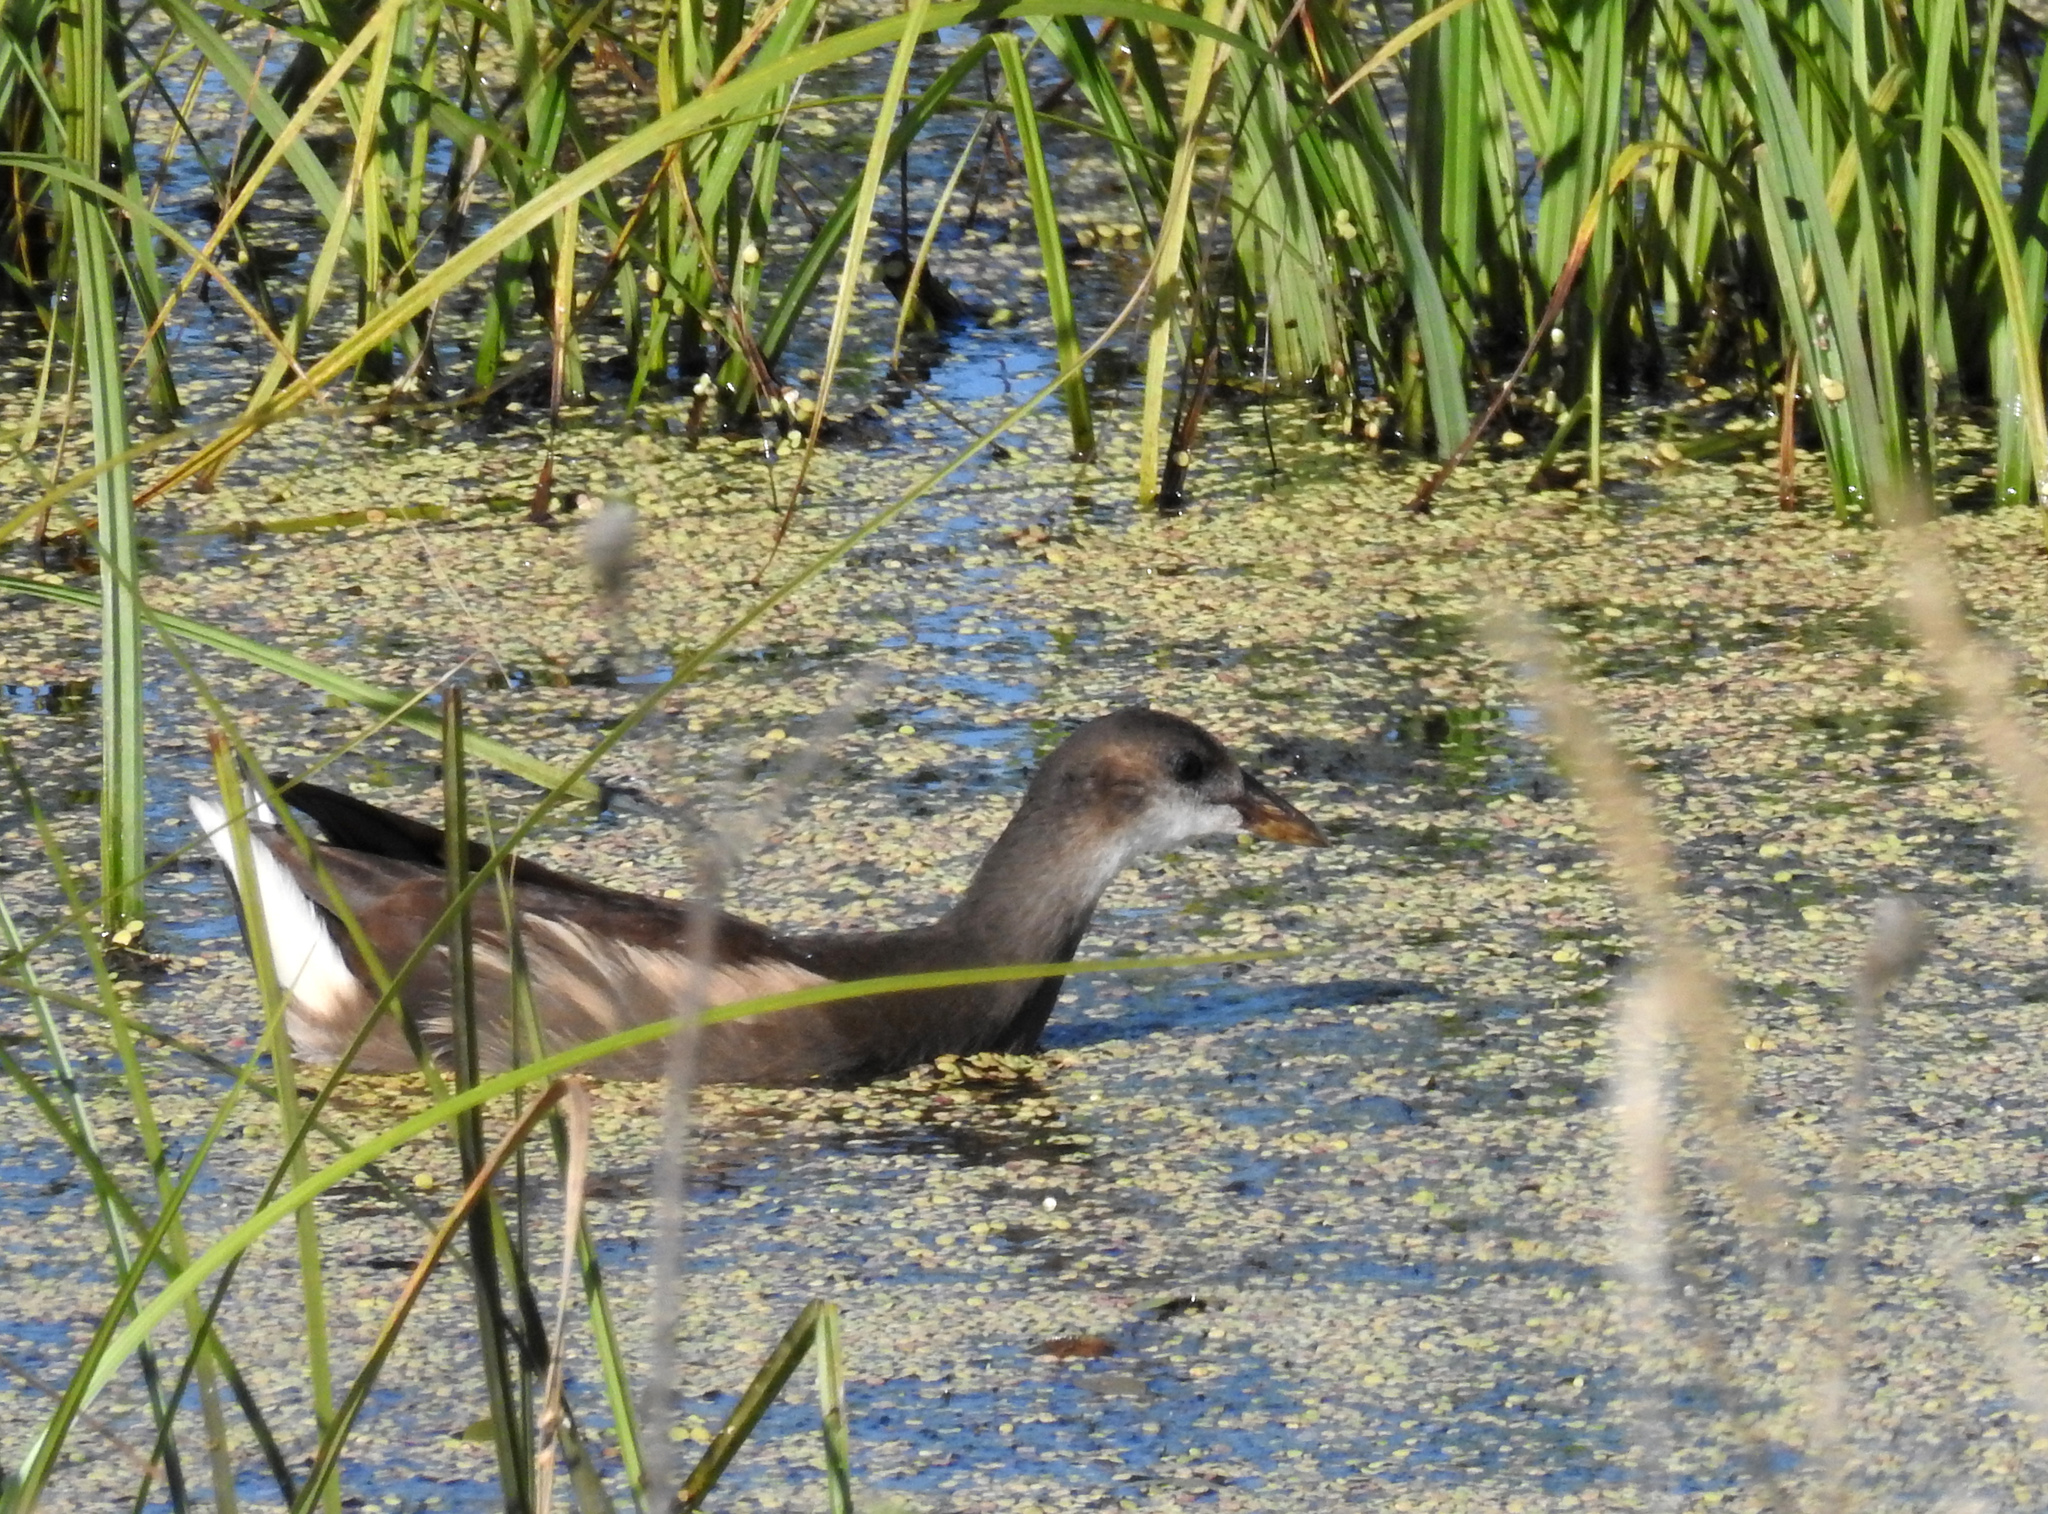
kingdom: Animalia
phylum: Chordata
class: Aves
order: Gruiformes
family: Rallidae
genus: Gallinula
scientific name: Gallinula chloropus
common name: Common moorhen
